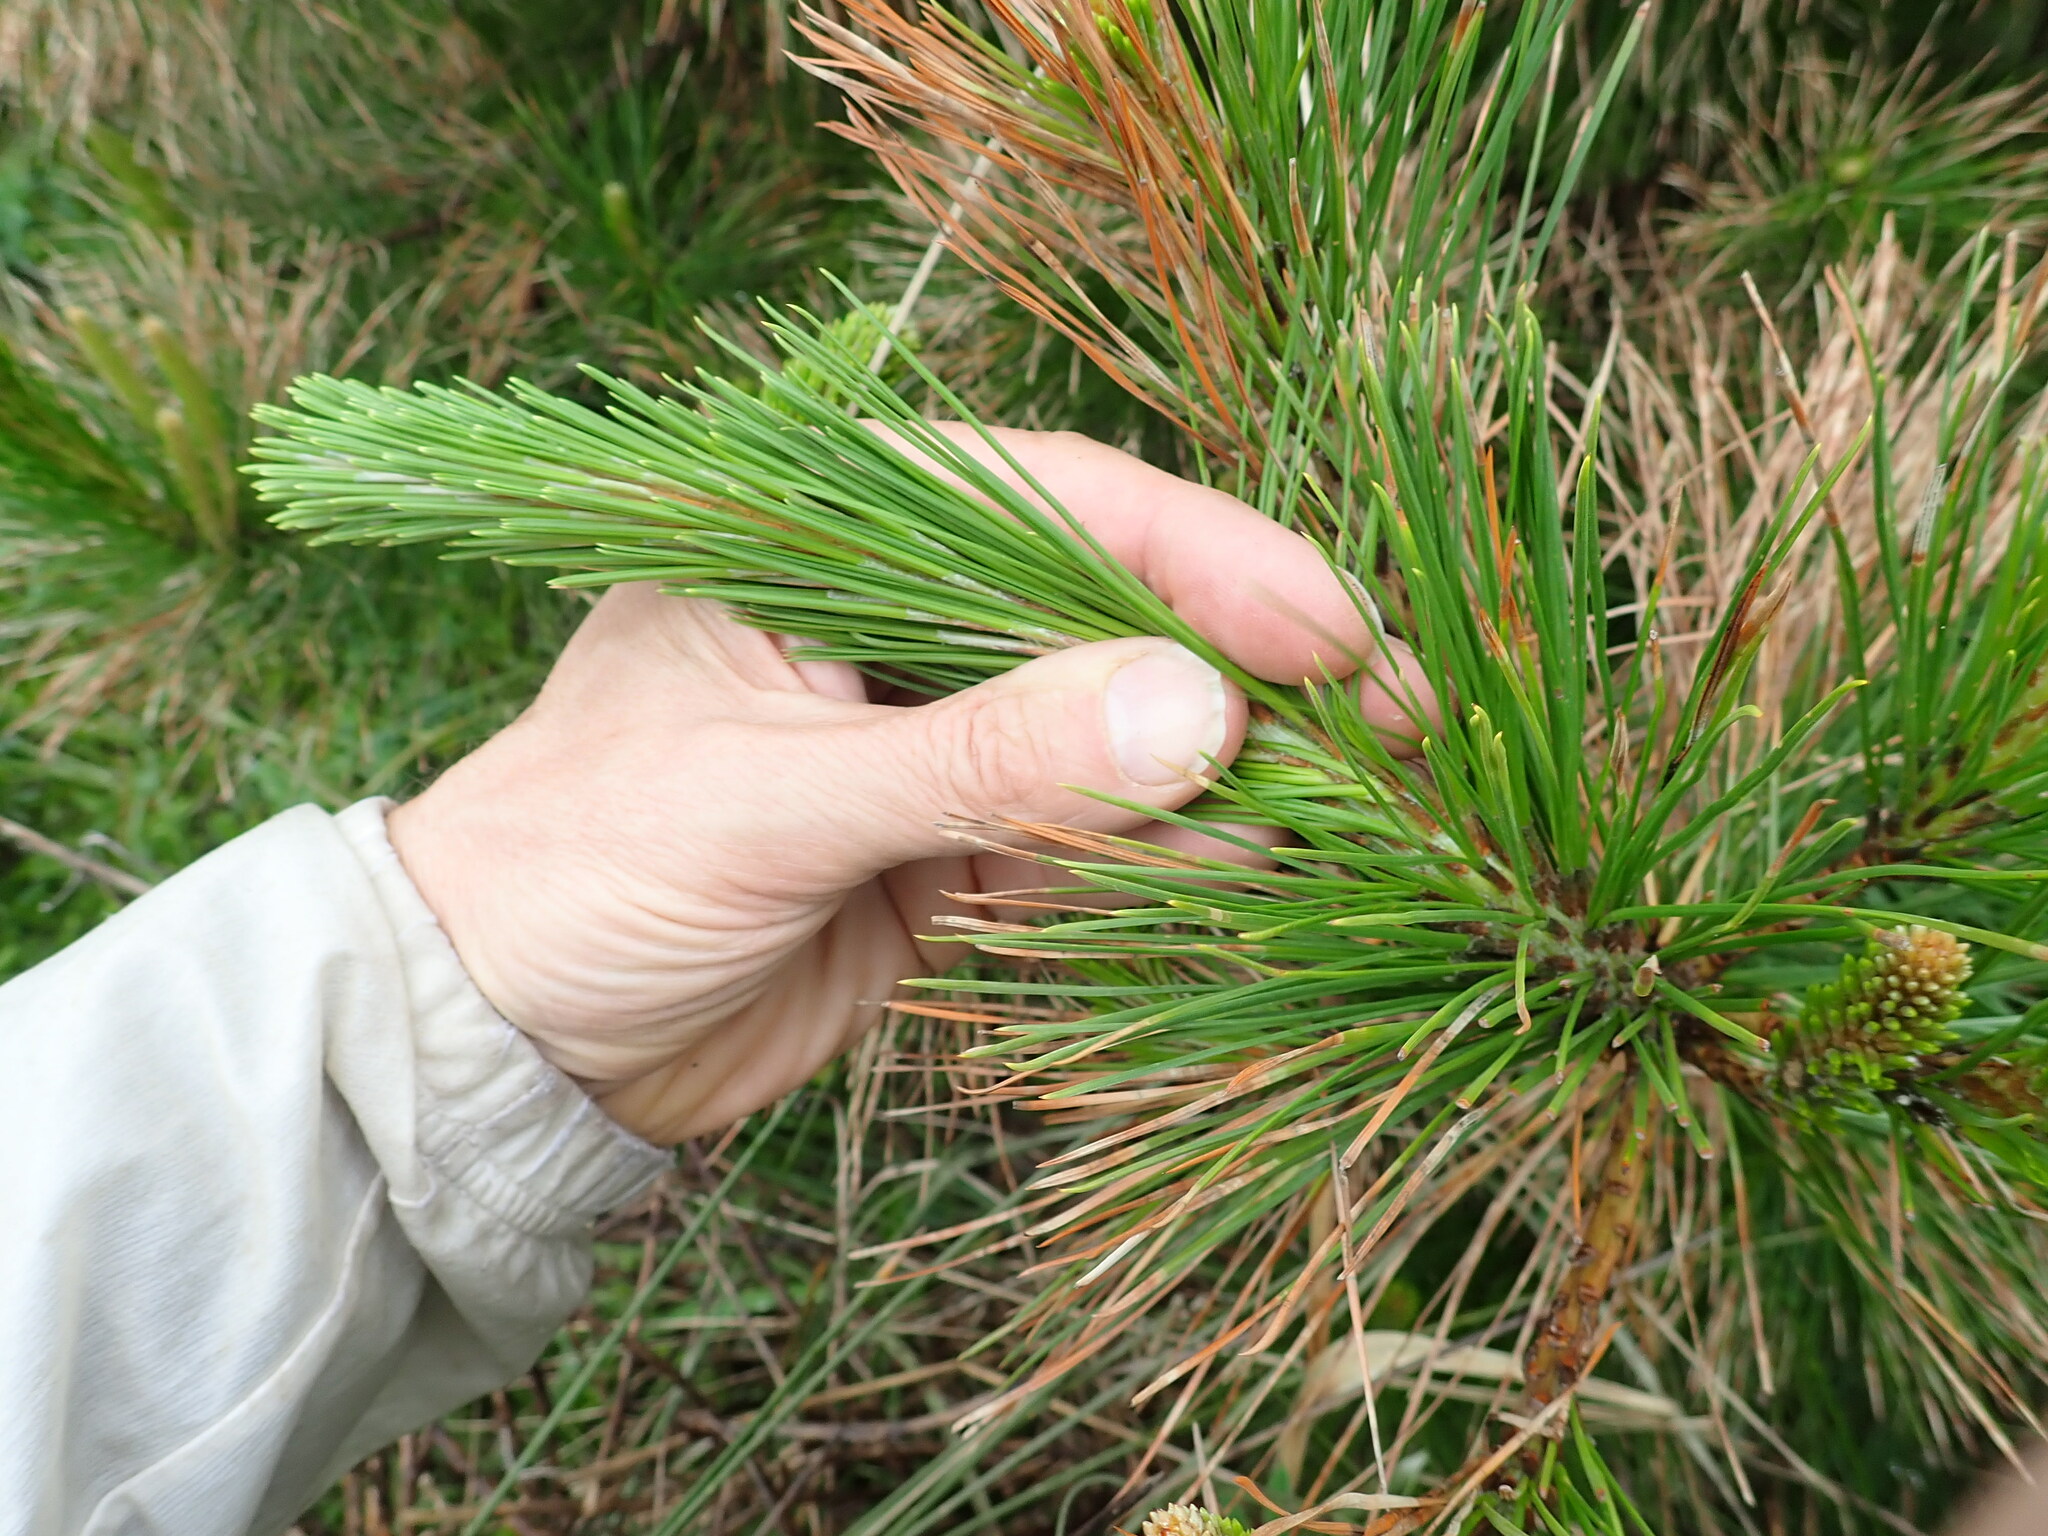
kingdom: Plantae
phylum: Tracheophyta
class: Pinopsida
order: Pinales
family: Pinaceae
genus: Pinus
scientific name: Pinus radiata
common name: Monterey pine
